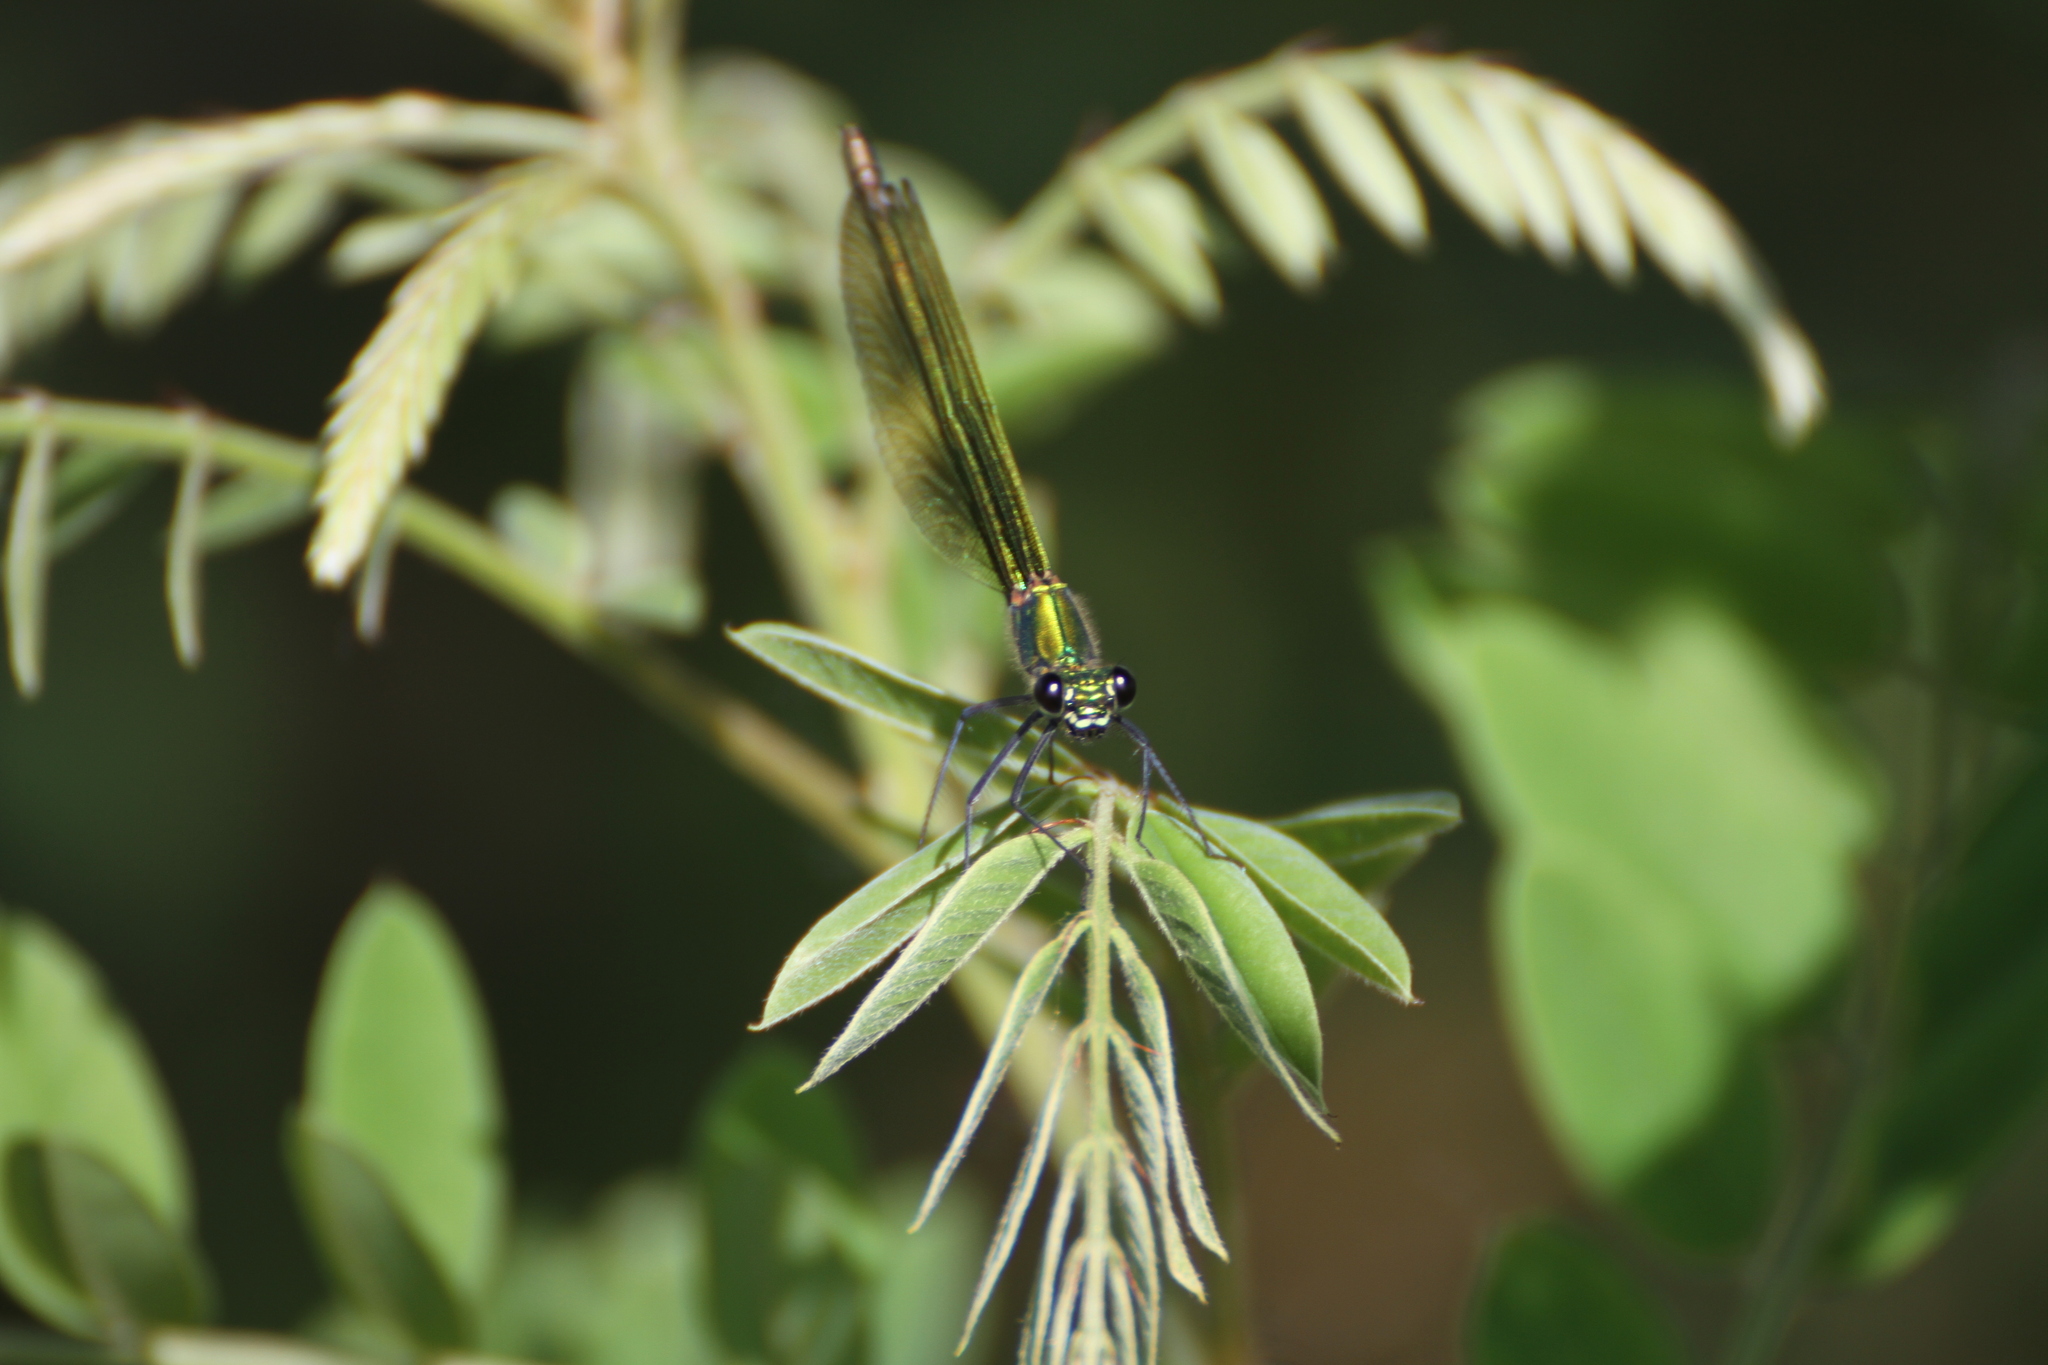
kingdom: Animalia
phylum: Arthropoda
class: Insecta
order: Odonata
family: Calopterygidae
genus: Calopteryx
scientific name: Calopteryx splendens
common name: Banded demoiselle
